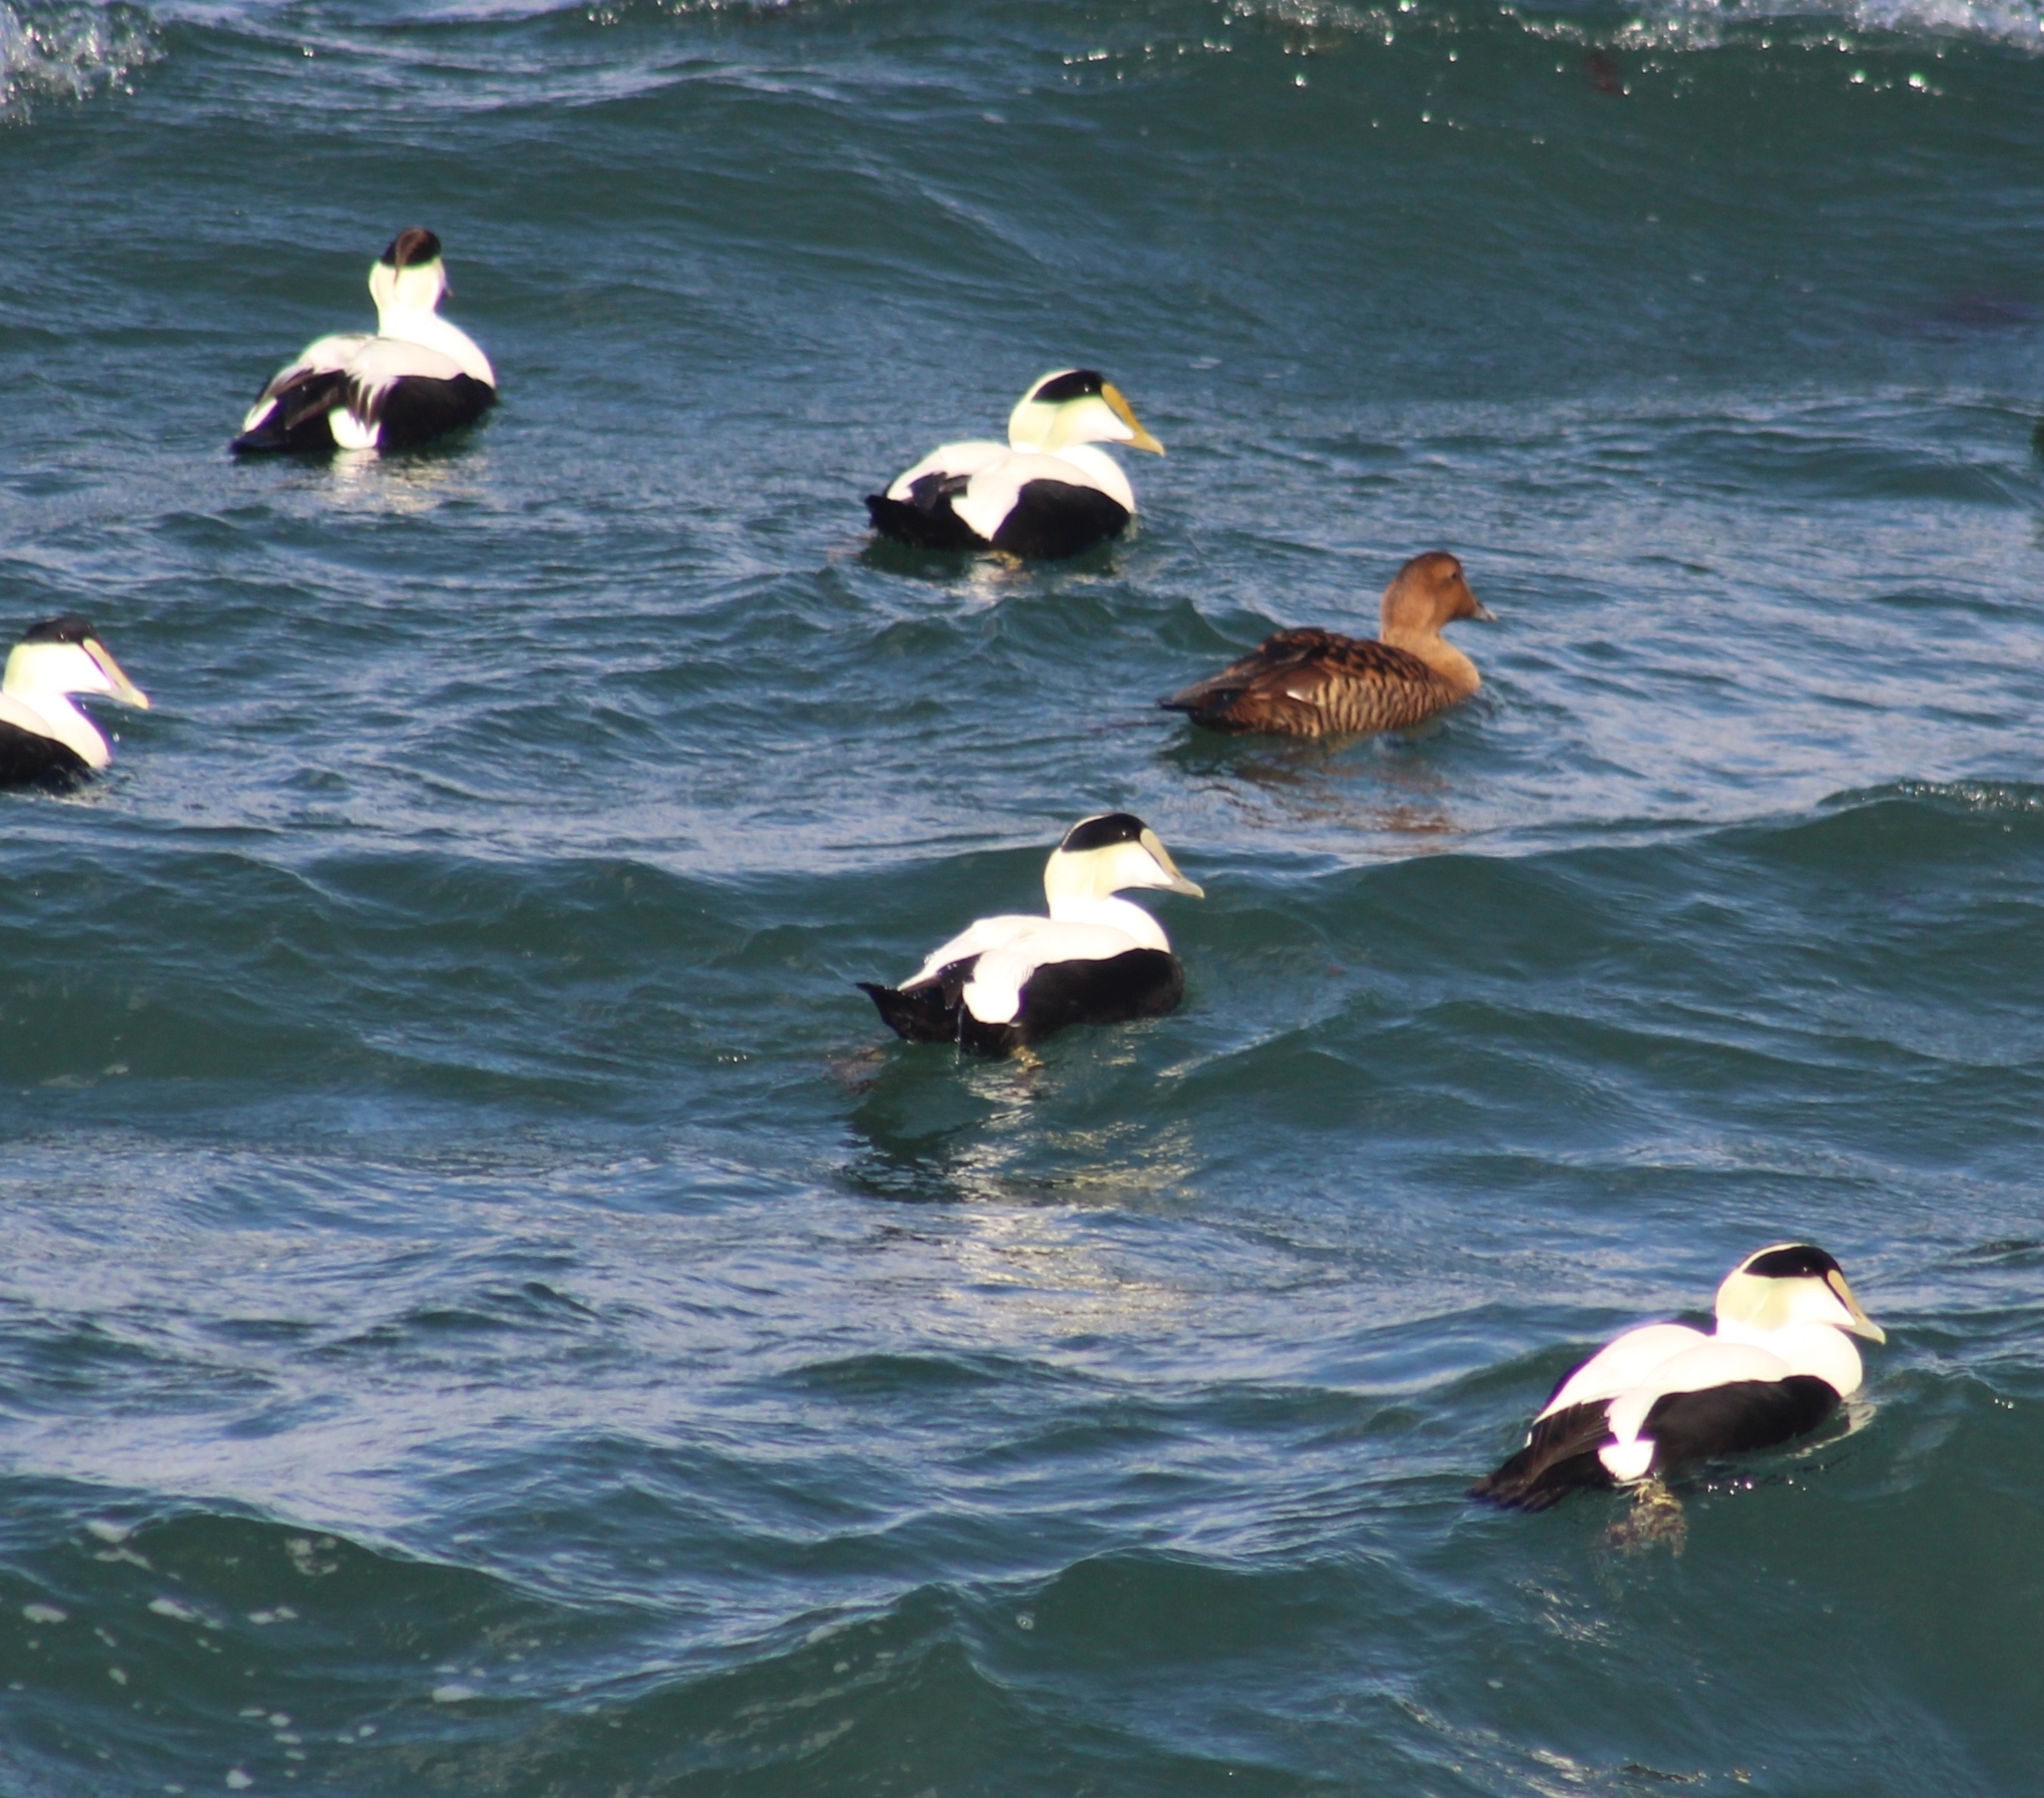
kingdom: Animalia
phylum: Chordata
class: Aves
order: Anseriformes
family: Anatidae
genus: Somateria
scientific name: Somateria mollissima
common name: Common eider
